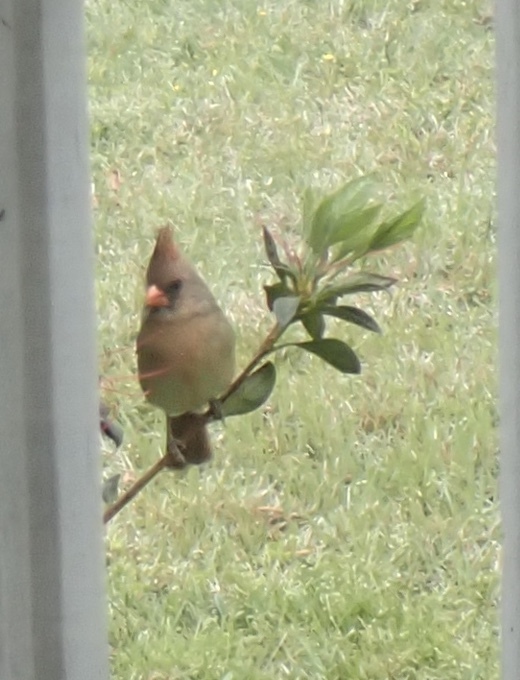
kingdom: Animalia
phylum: Chordata
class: Aves
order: Passeriformes
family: Cardinalidae
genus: Cardinalis
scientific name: Cardinalis cardinalis
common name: Northern cardinal
